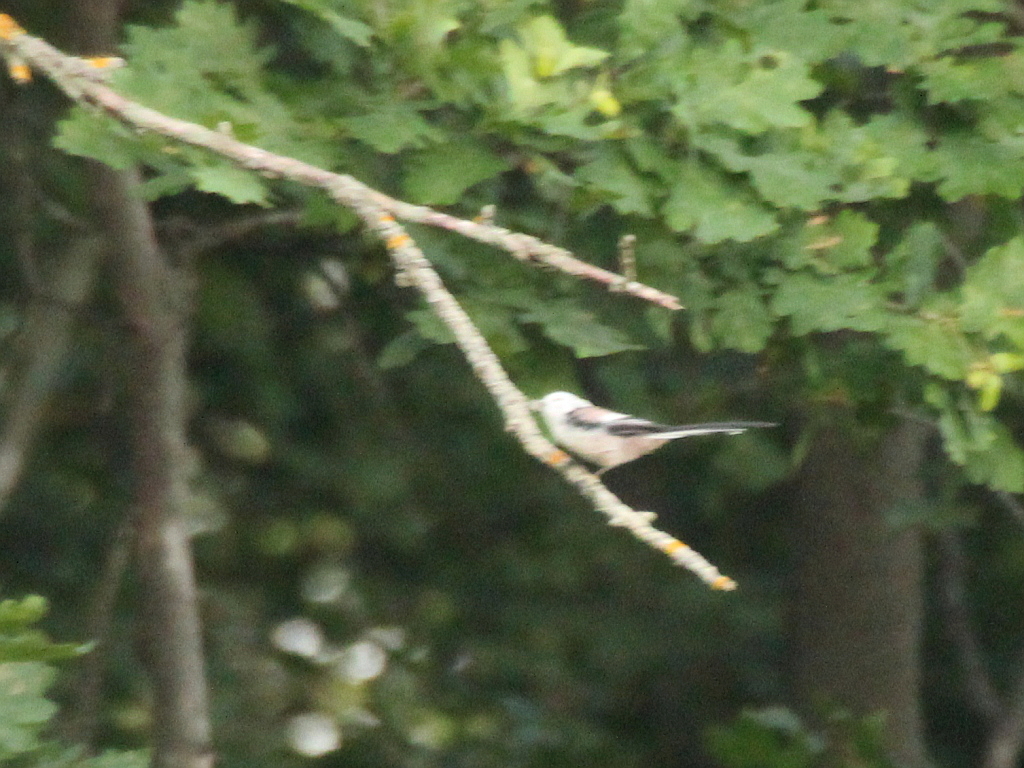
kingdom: Animalia
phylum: Chordata
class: Aves
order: Passeriformes
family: Aegithalidae
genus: Aegithalos
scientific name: Aegithalos caudatus
